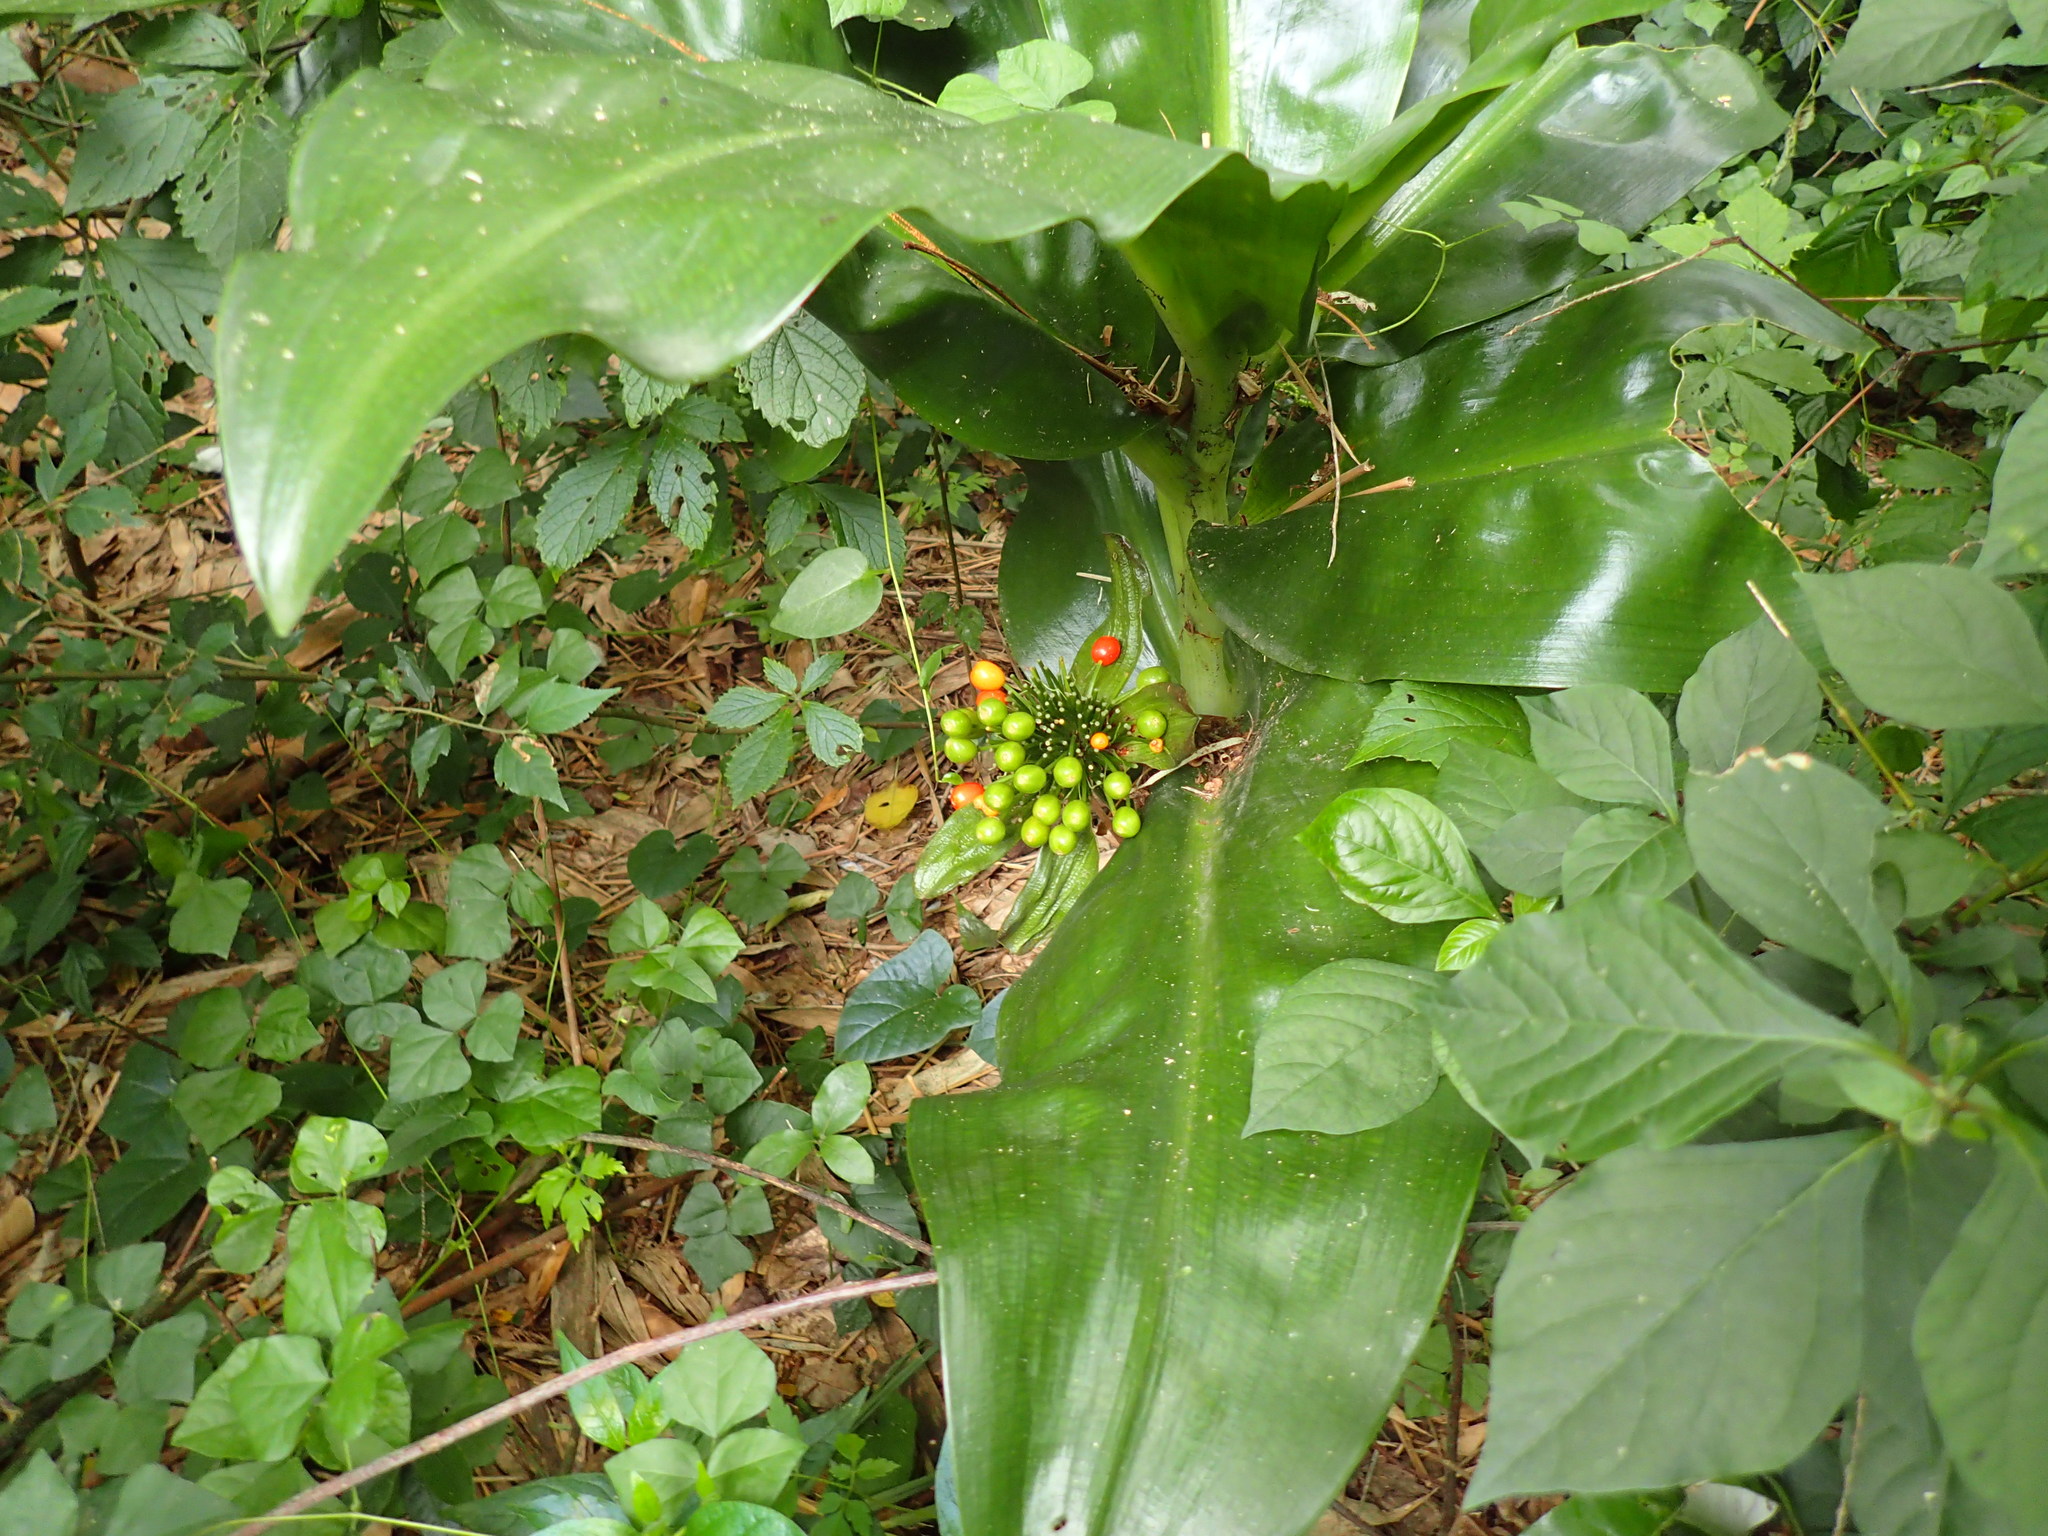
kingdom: Plantae
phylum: Tracheophyta
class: Liliopsida
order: Asparagales
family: Amaryllidaceae
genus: Scadoxus
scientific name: Scadoxus multiflorus
